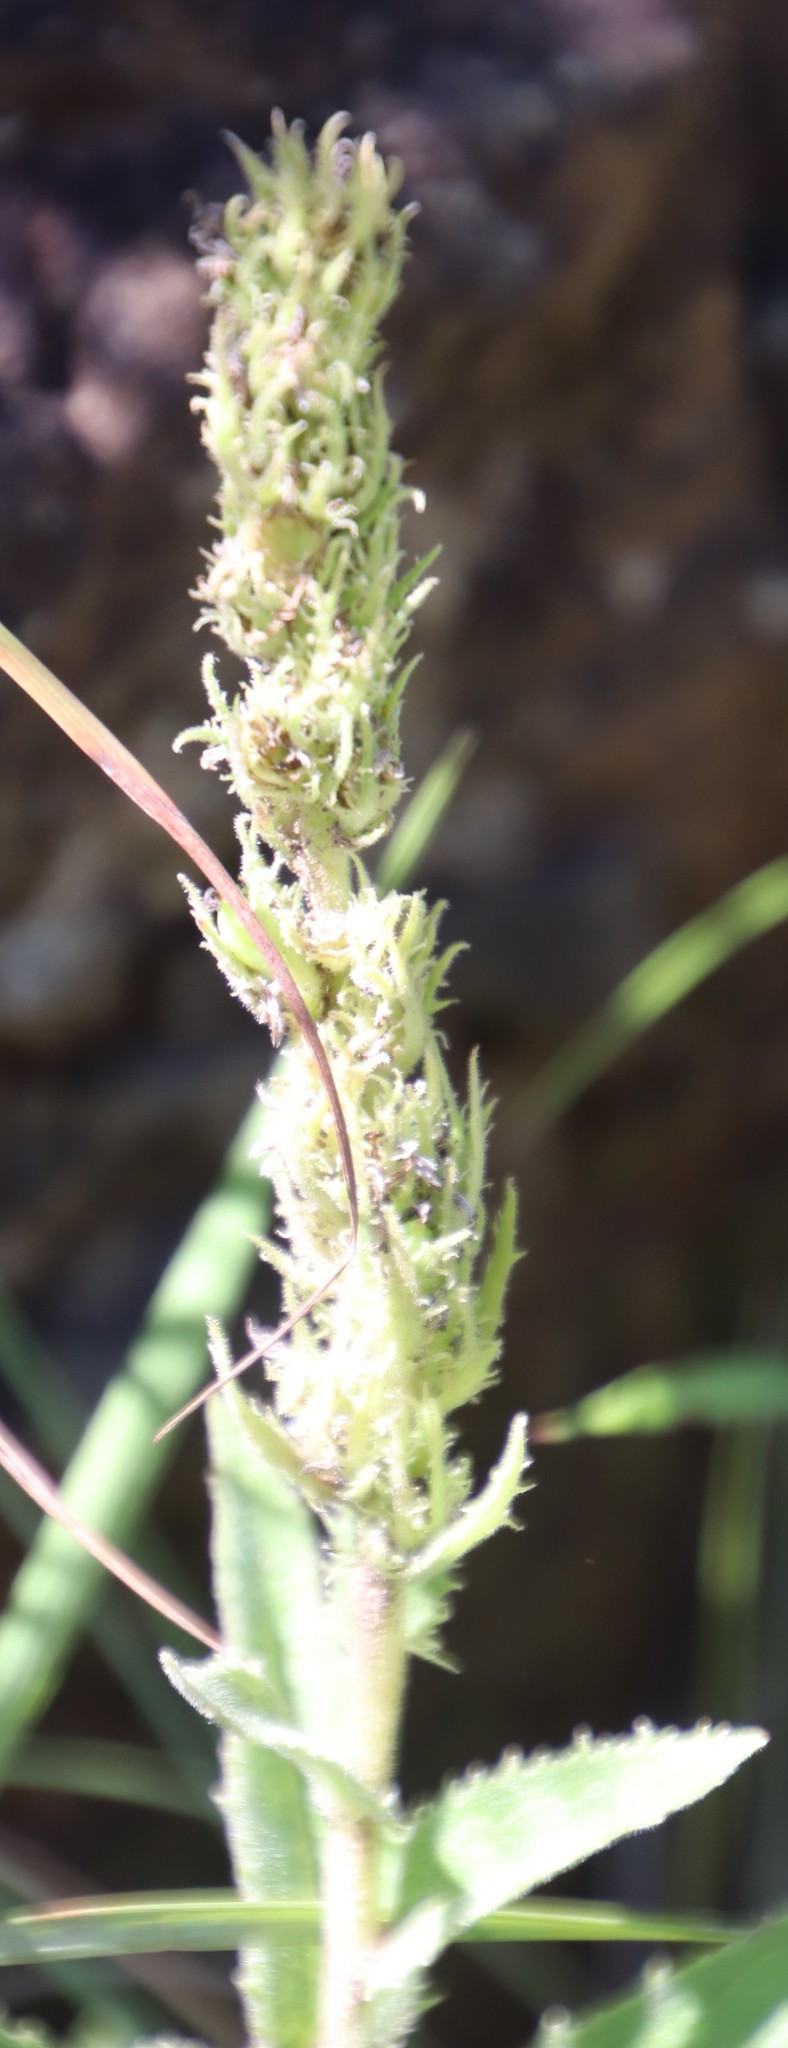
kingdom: Plantae
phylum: Tracheophyta
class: Magnoliopsida
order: Asterales
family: Campanulaceae
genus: Cyphia
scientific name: Cyphia elata
